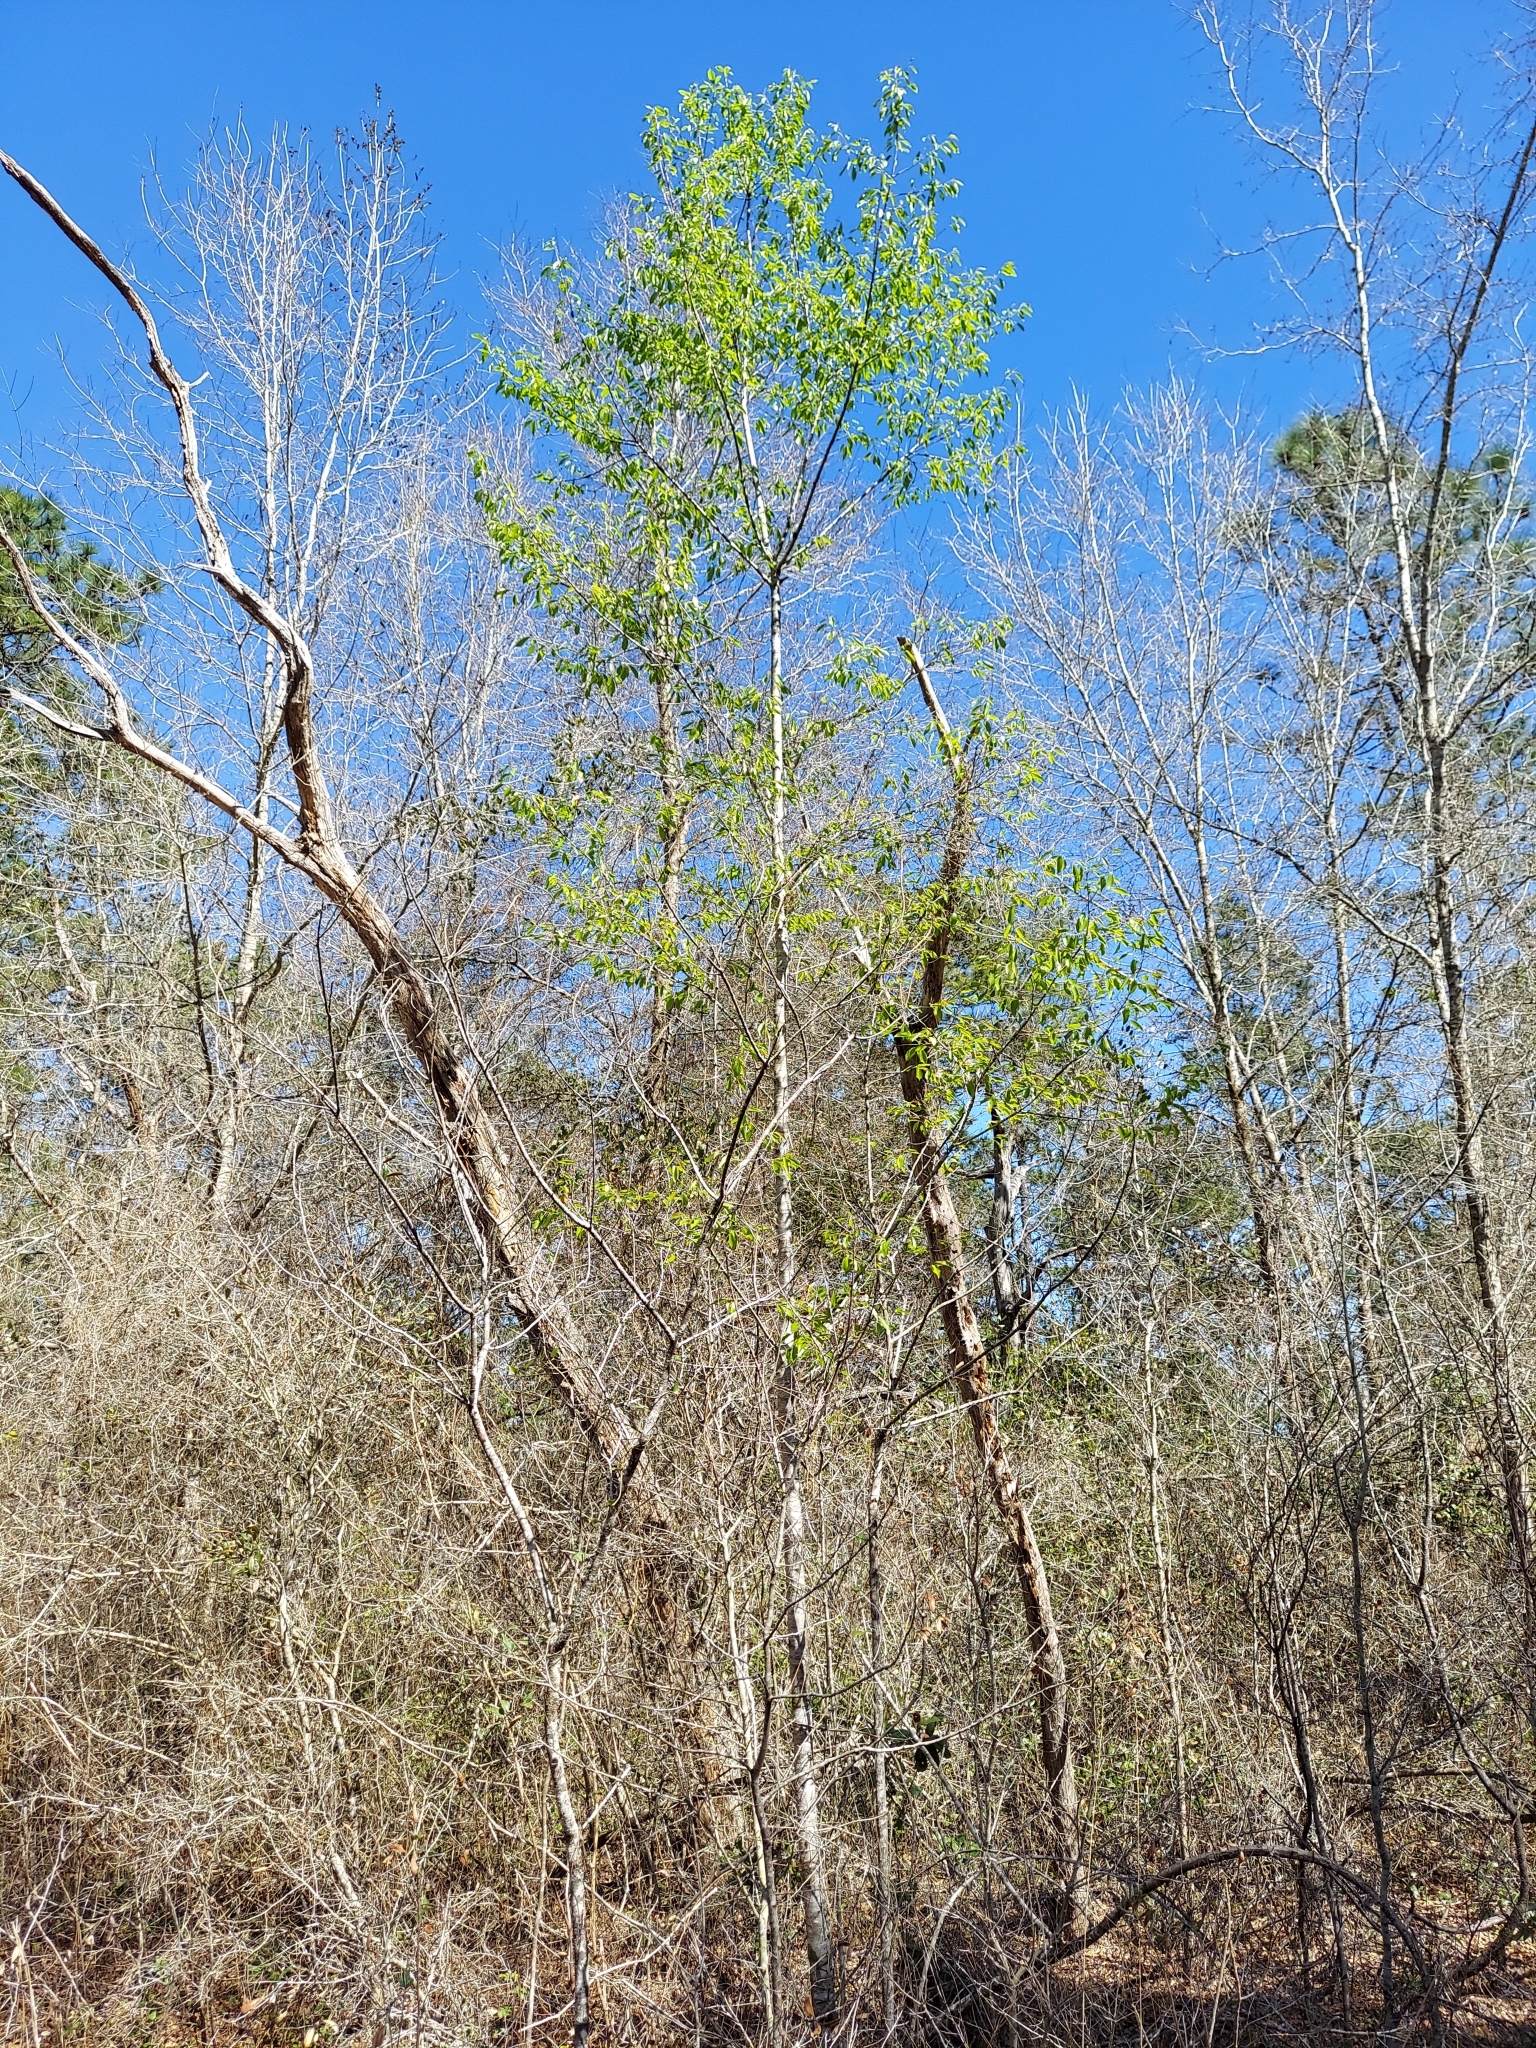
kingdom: Plantae
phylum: Tracheophyta
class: Magnoliopsida
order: Rosales
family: Rosaceae
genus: Prunus
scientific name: Prunus serotina
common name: Black cherry
